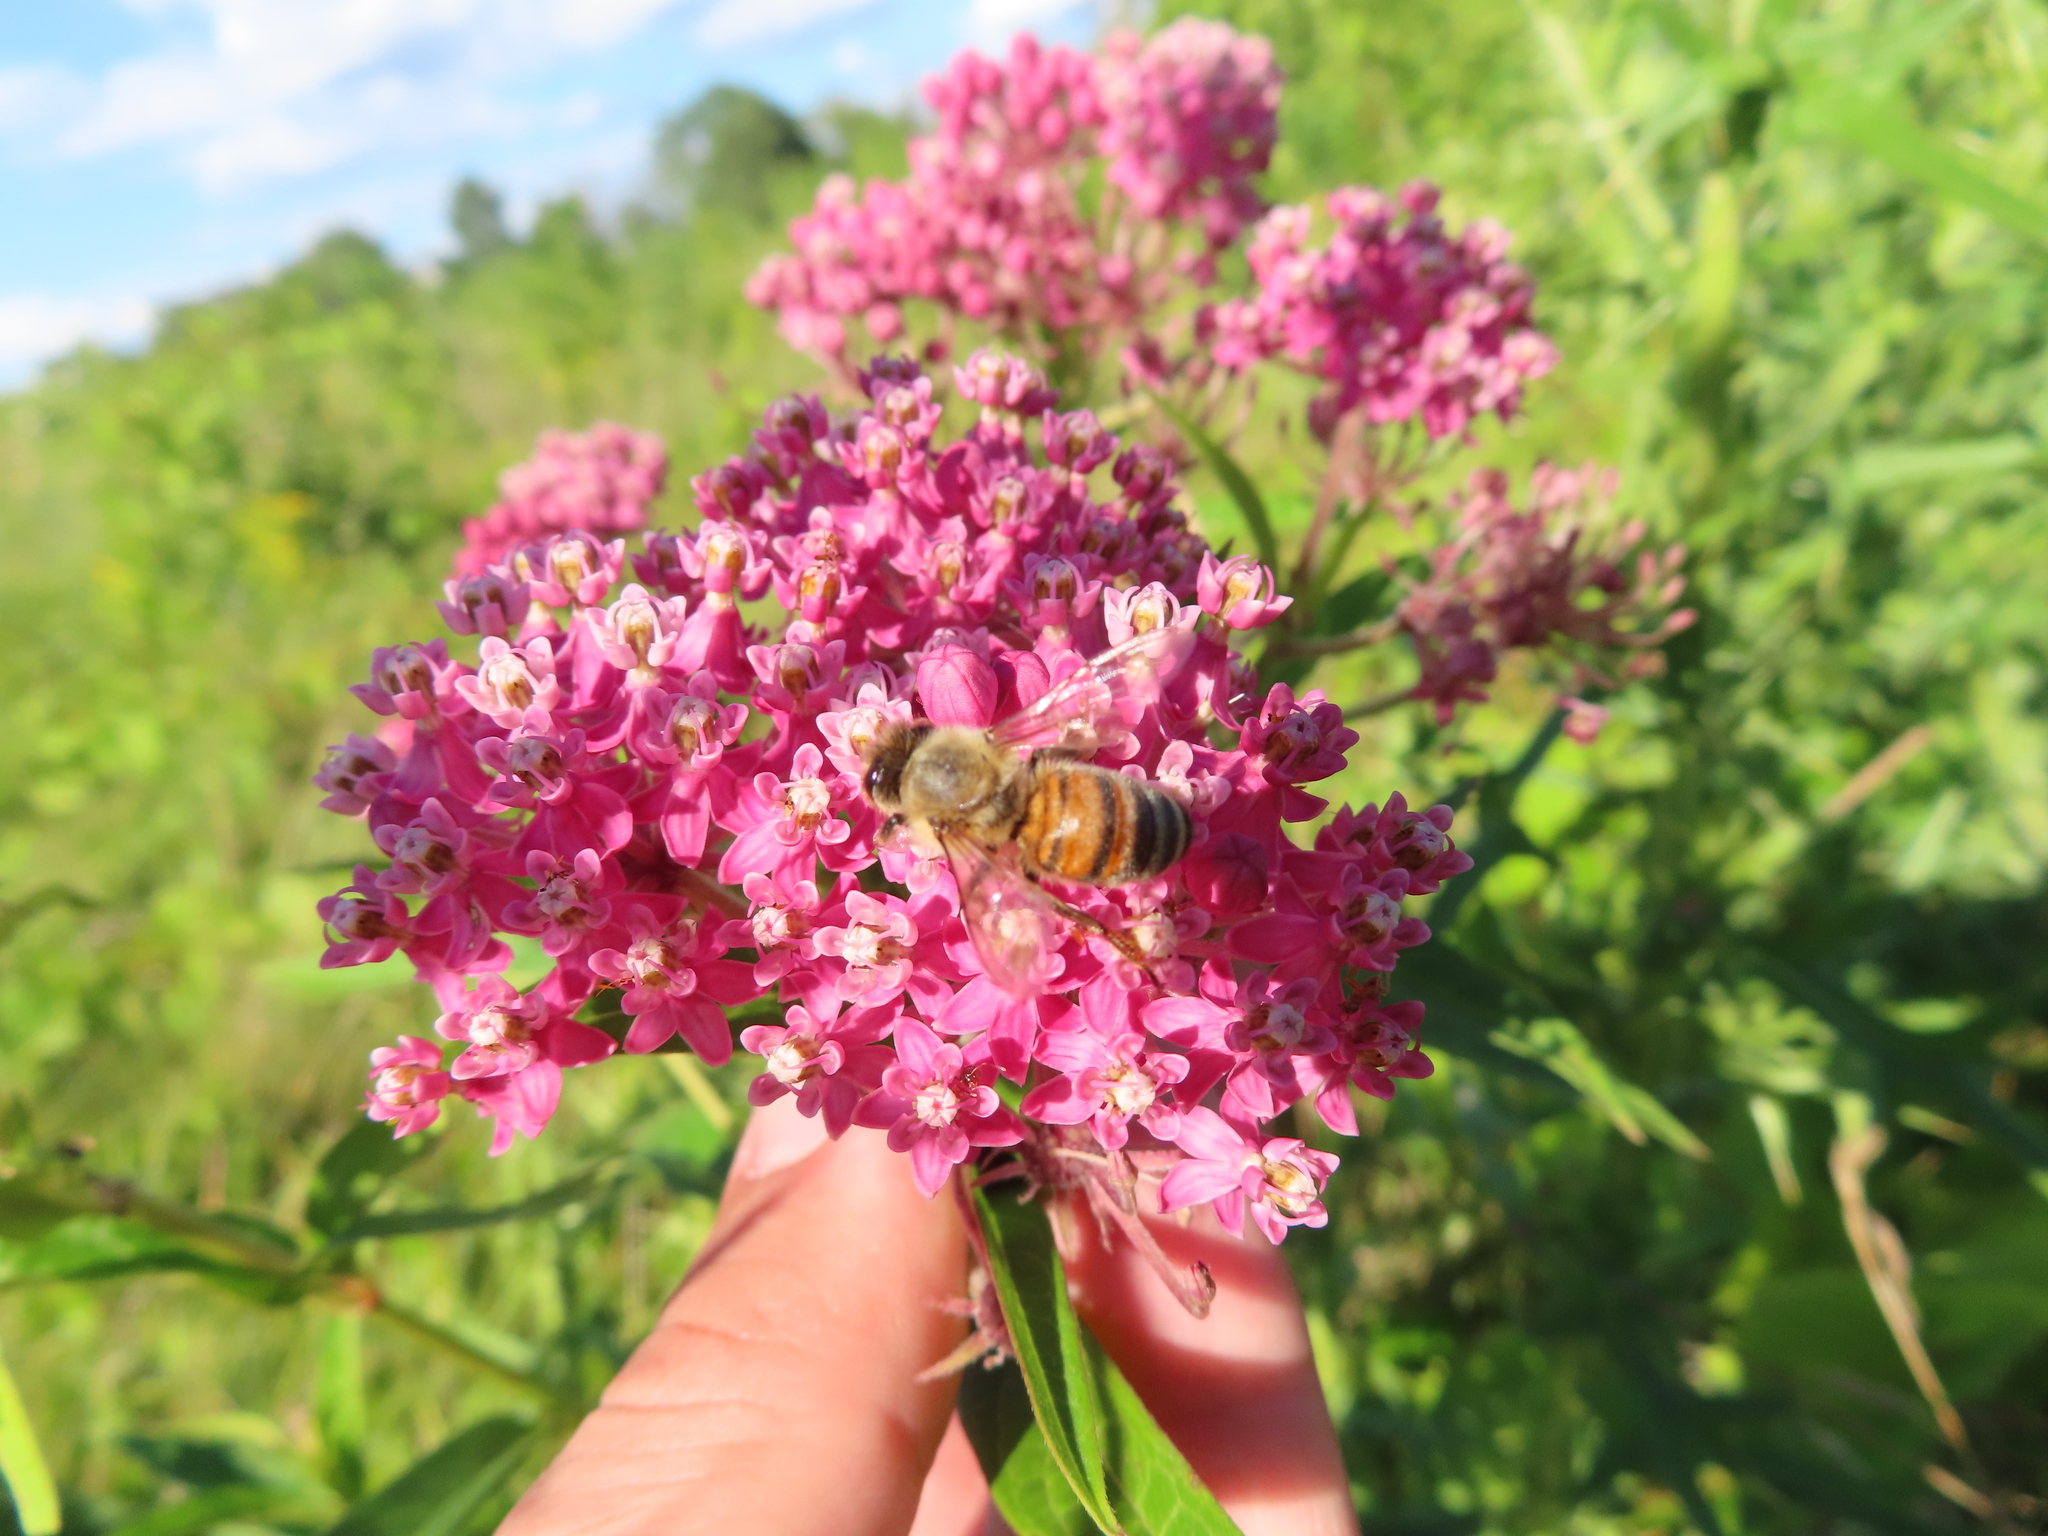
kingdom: Animalia
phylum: Arthropoda
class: Insecta
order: Hymenoptera
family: Apidae
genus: Apis
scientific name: Apis mellifera
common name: Honey bee
